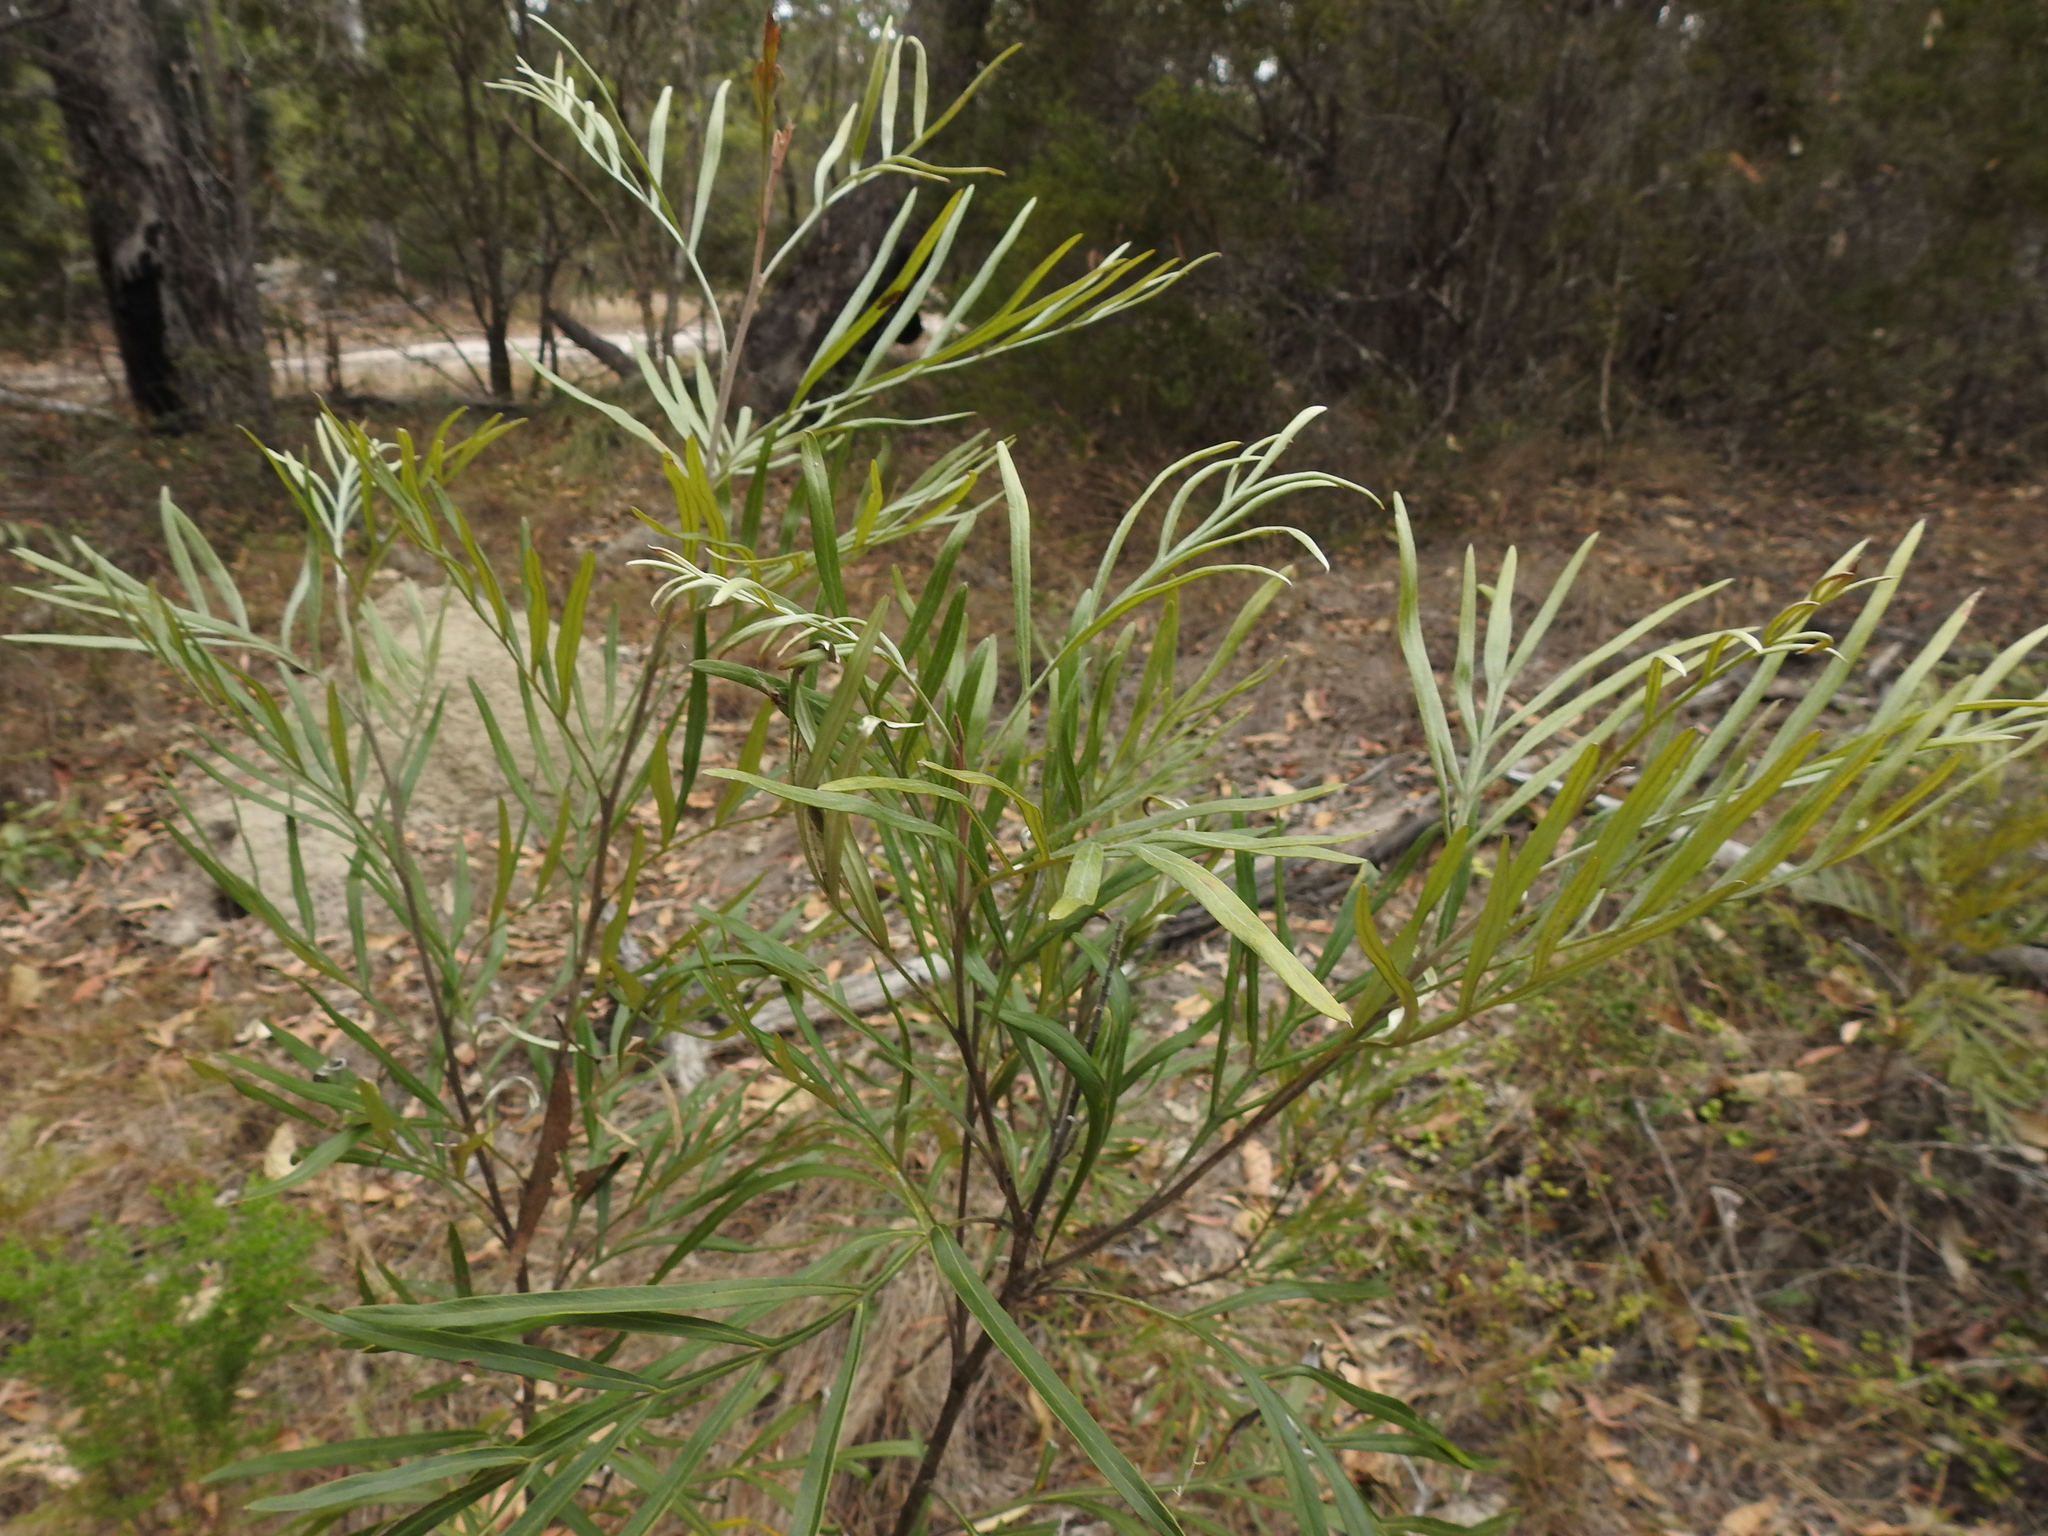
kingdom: Plantae
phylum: Tracheophyta
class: Magnoliopsida
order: Proteales
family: Proteaceae
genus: Grevillea
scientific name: Grevillea banksii
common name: Kahili flower
